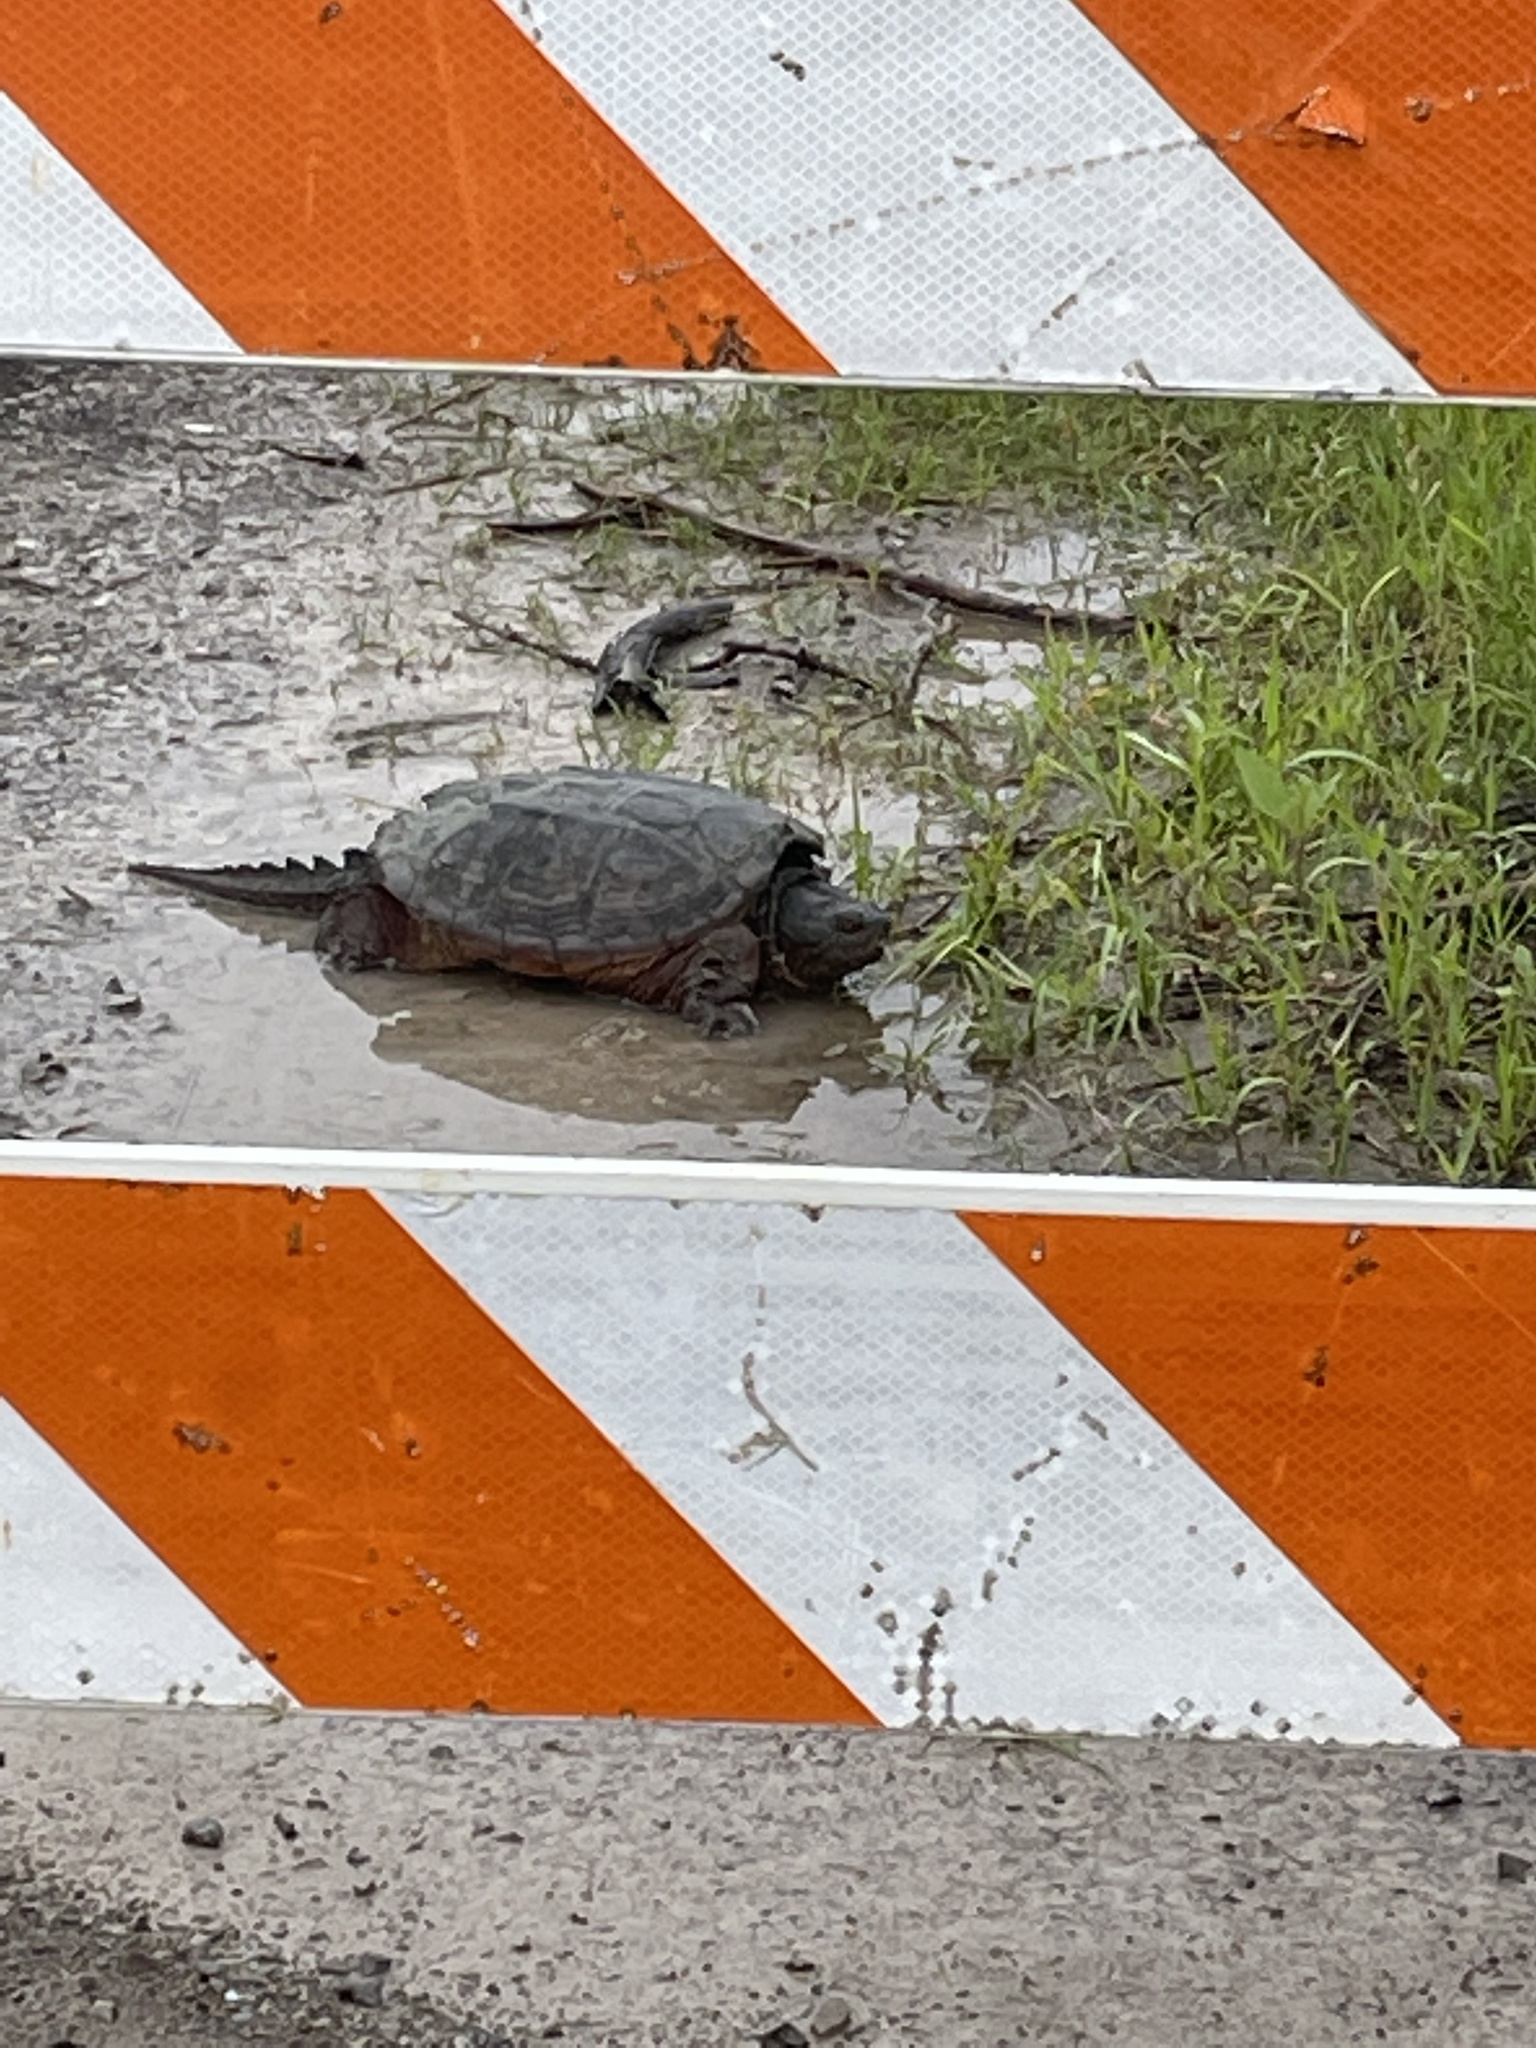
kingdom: Animalia
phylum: Chordata
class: Testudines
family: Chelydridae
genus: Chelydra
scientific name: Chelydra serpentina
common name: Common snapping turtle
